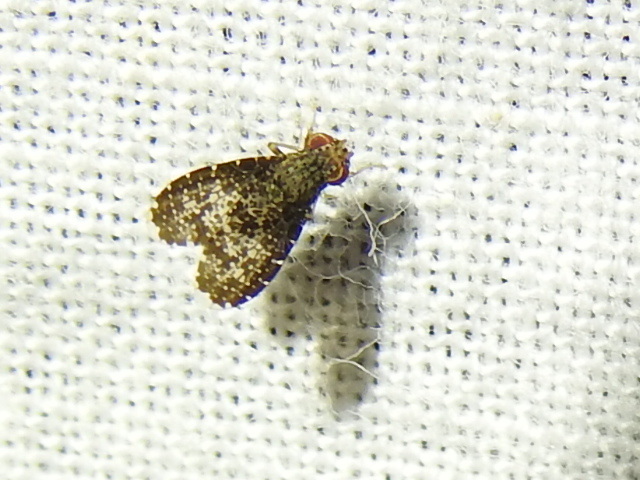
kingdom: Animalia
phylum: Arthropoda
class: Insecta
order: Diptera
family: Lauxaniidae
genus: Trypetisoma
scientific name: Trypetisoma eutretoides
